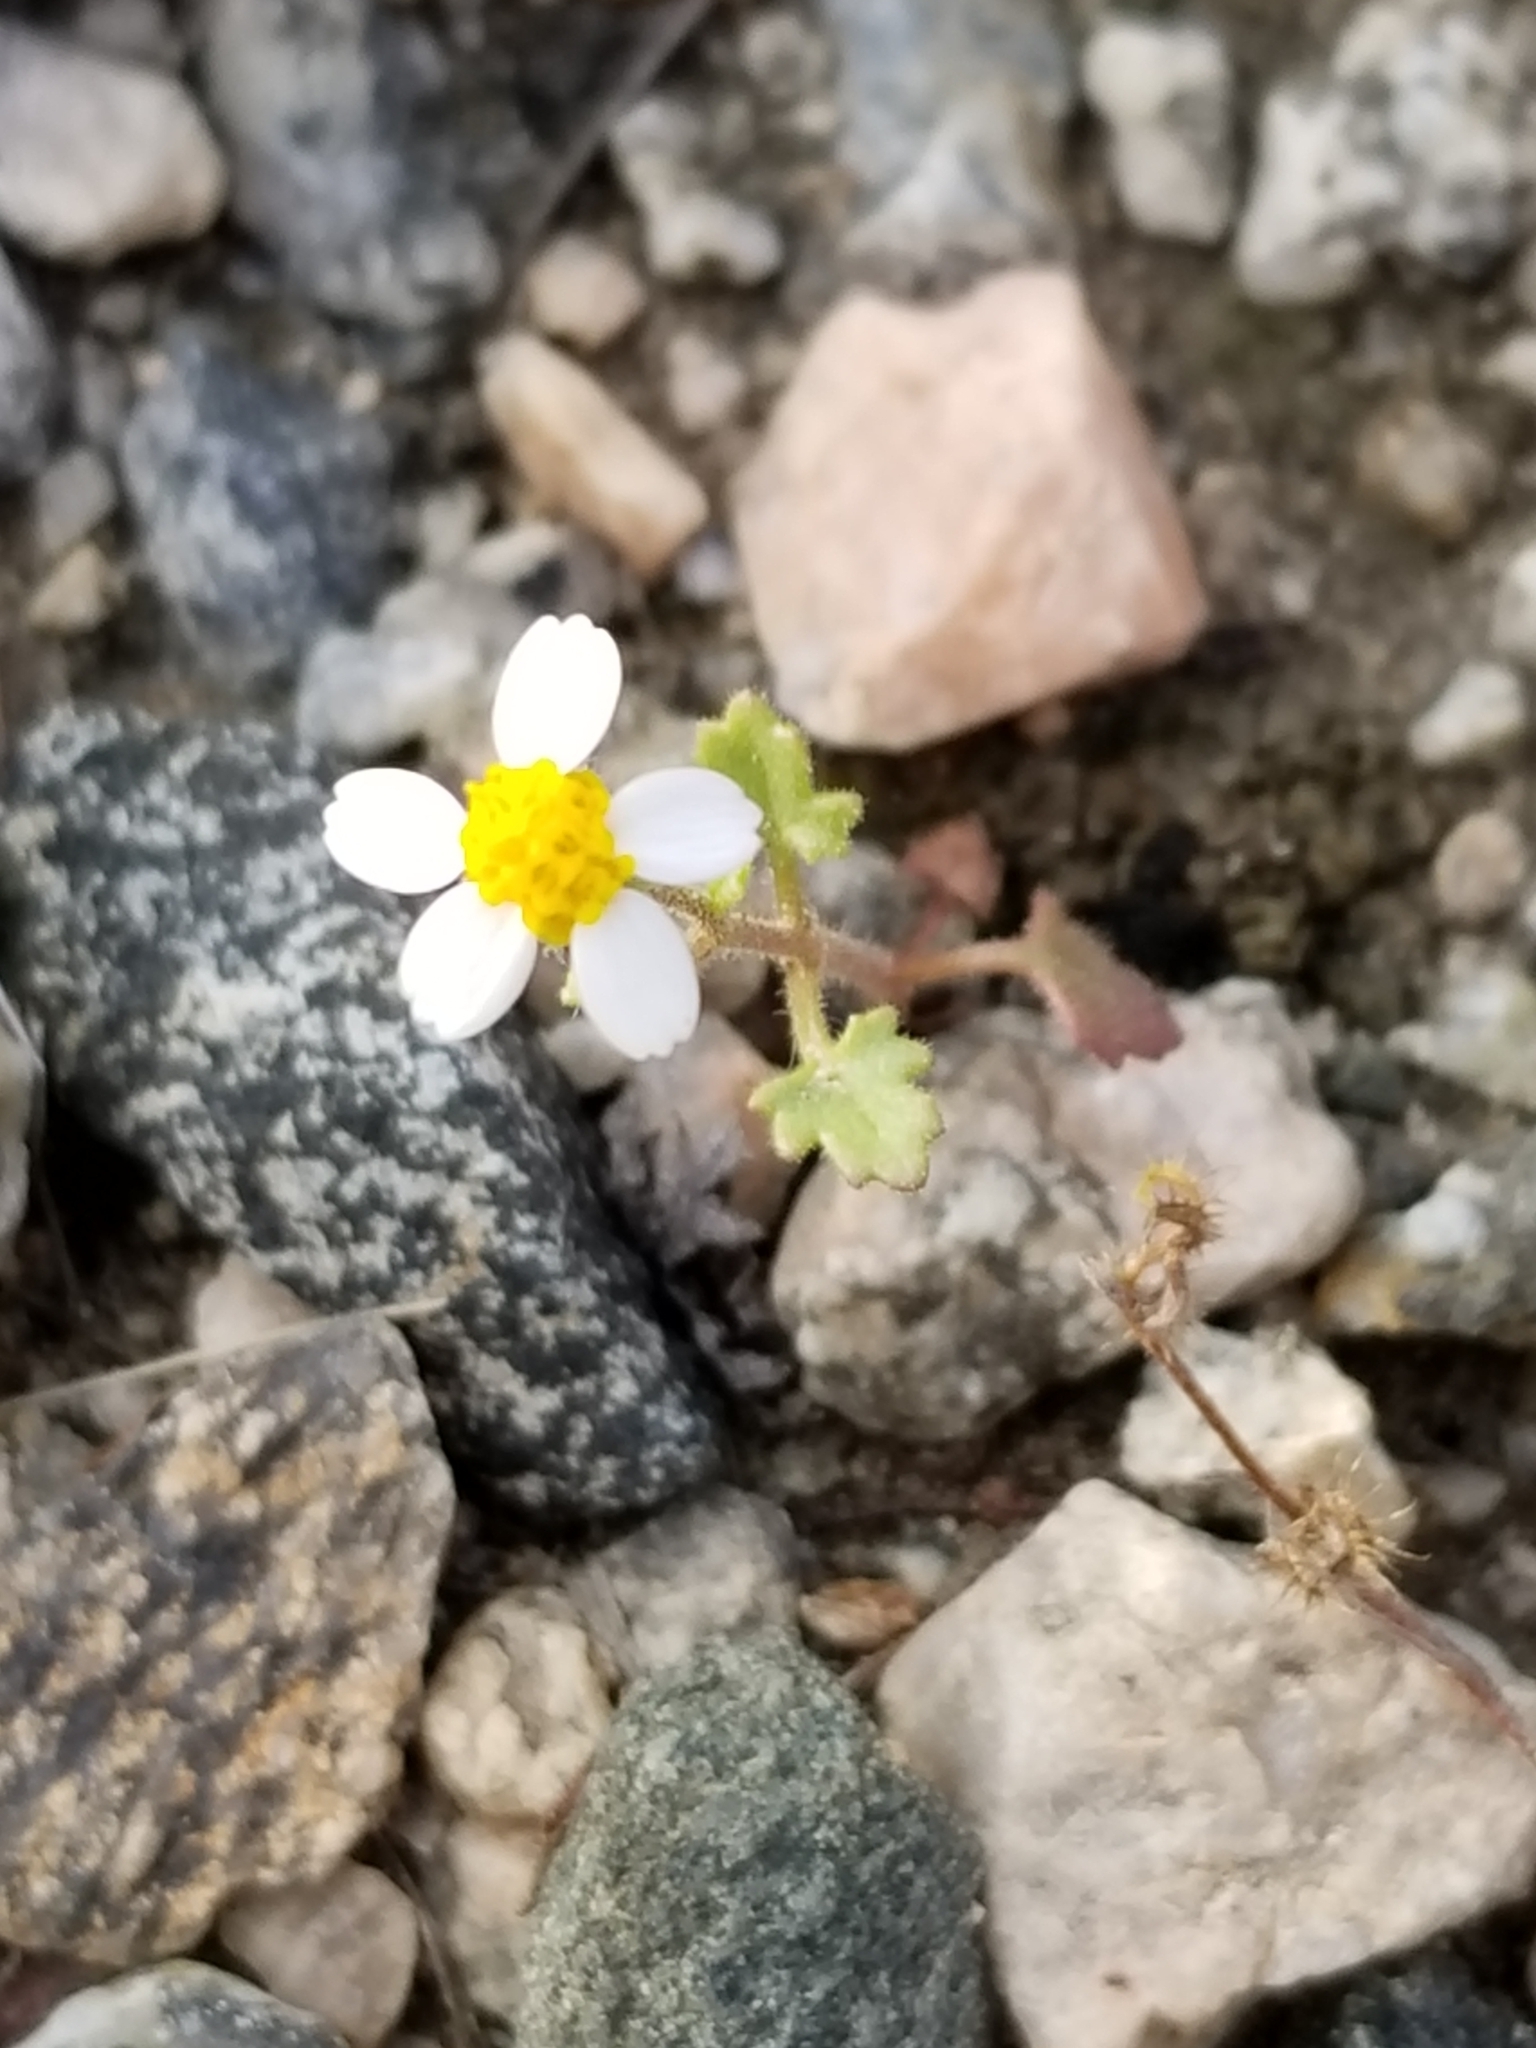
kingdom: Plantae
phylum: Tracheophyta
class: Magnoliopsida
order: Asterales
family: Asteraceae
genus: Laphamia
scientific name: Laphamia emoryi
